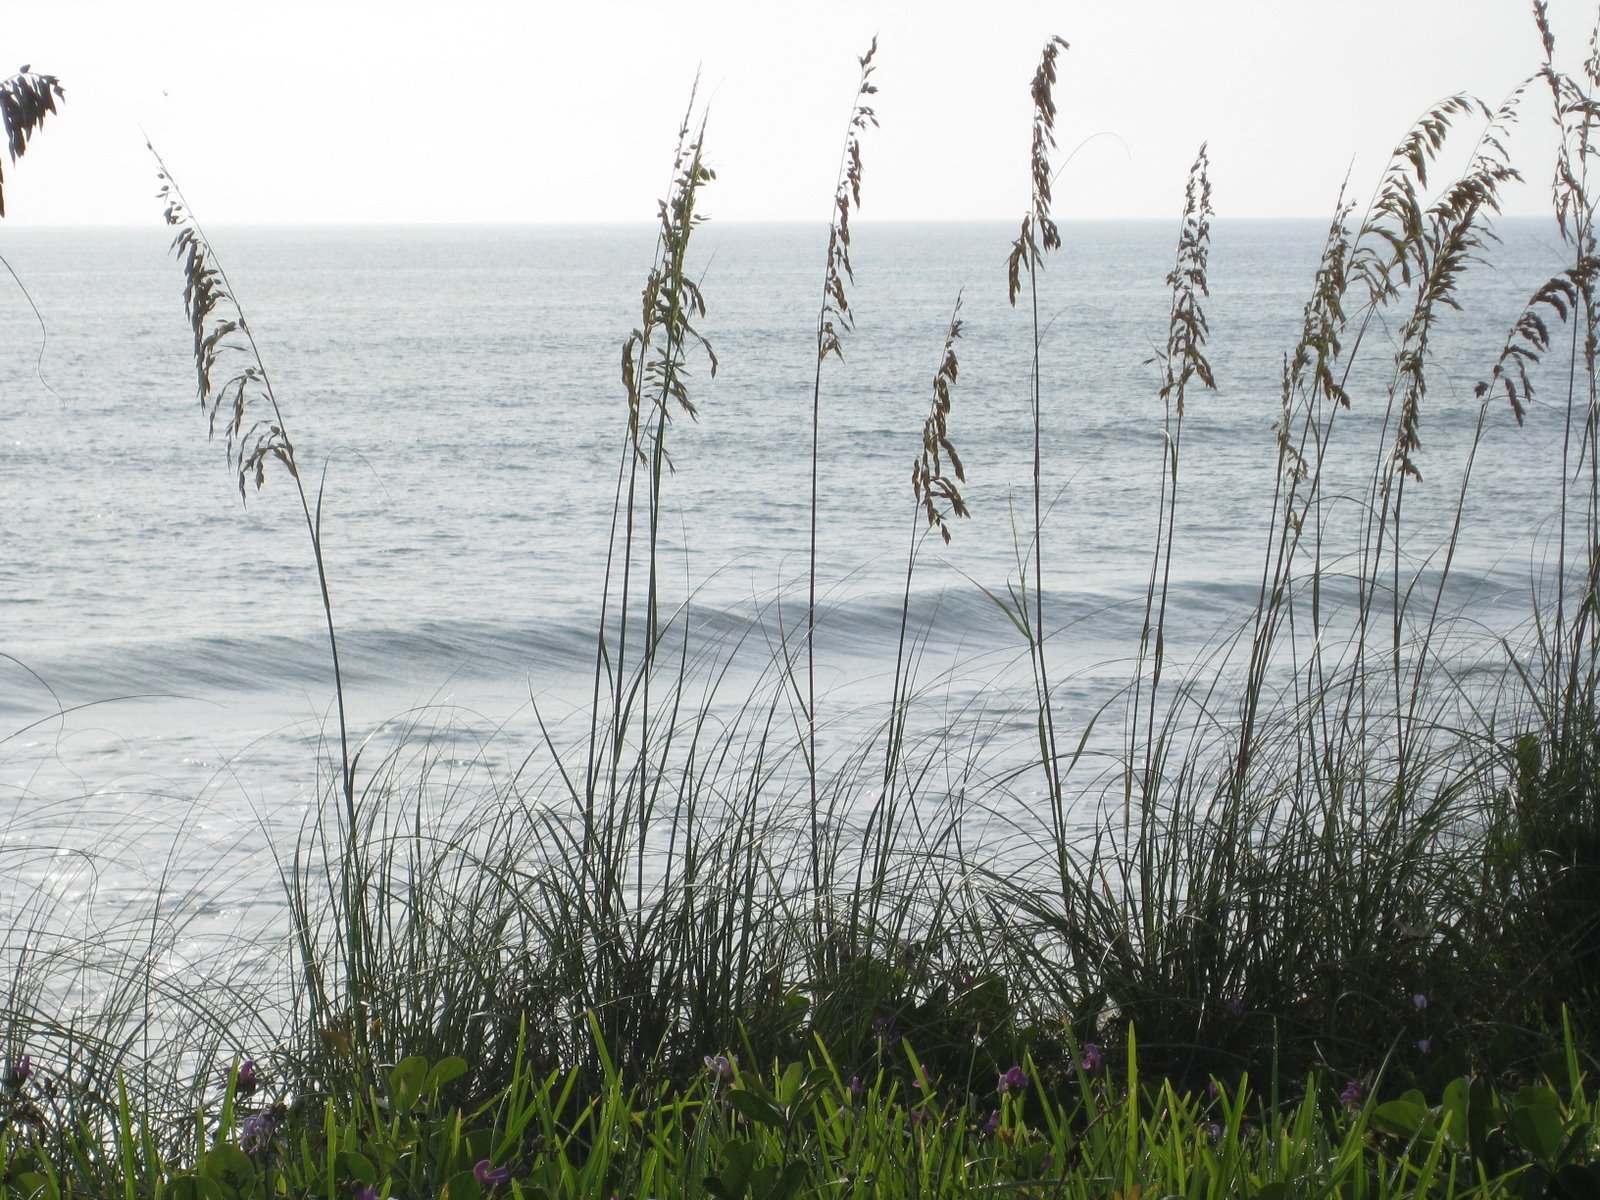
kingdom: Plantae
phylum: Tracheophyta
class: Liliopsida
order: Poales
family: Poaceae
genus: Uniola
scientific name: Uniola paniculata
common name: Seaside-oats
